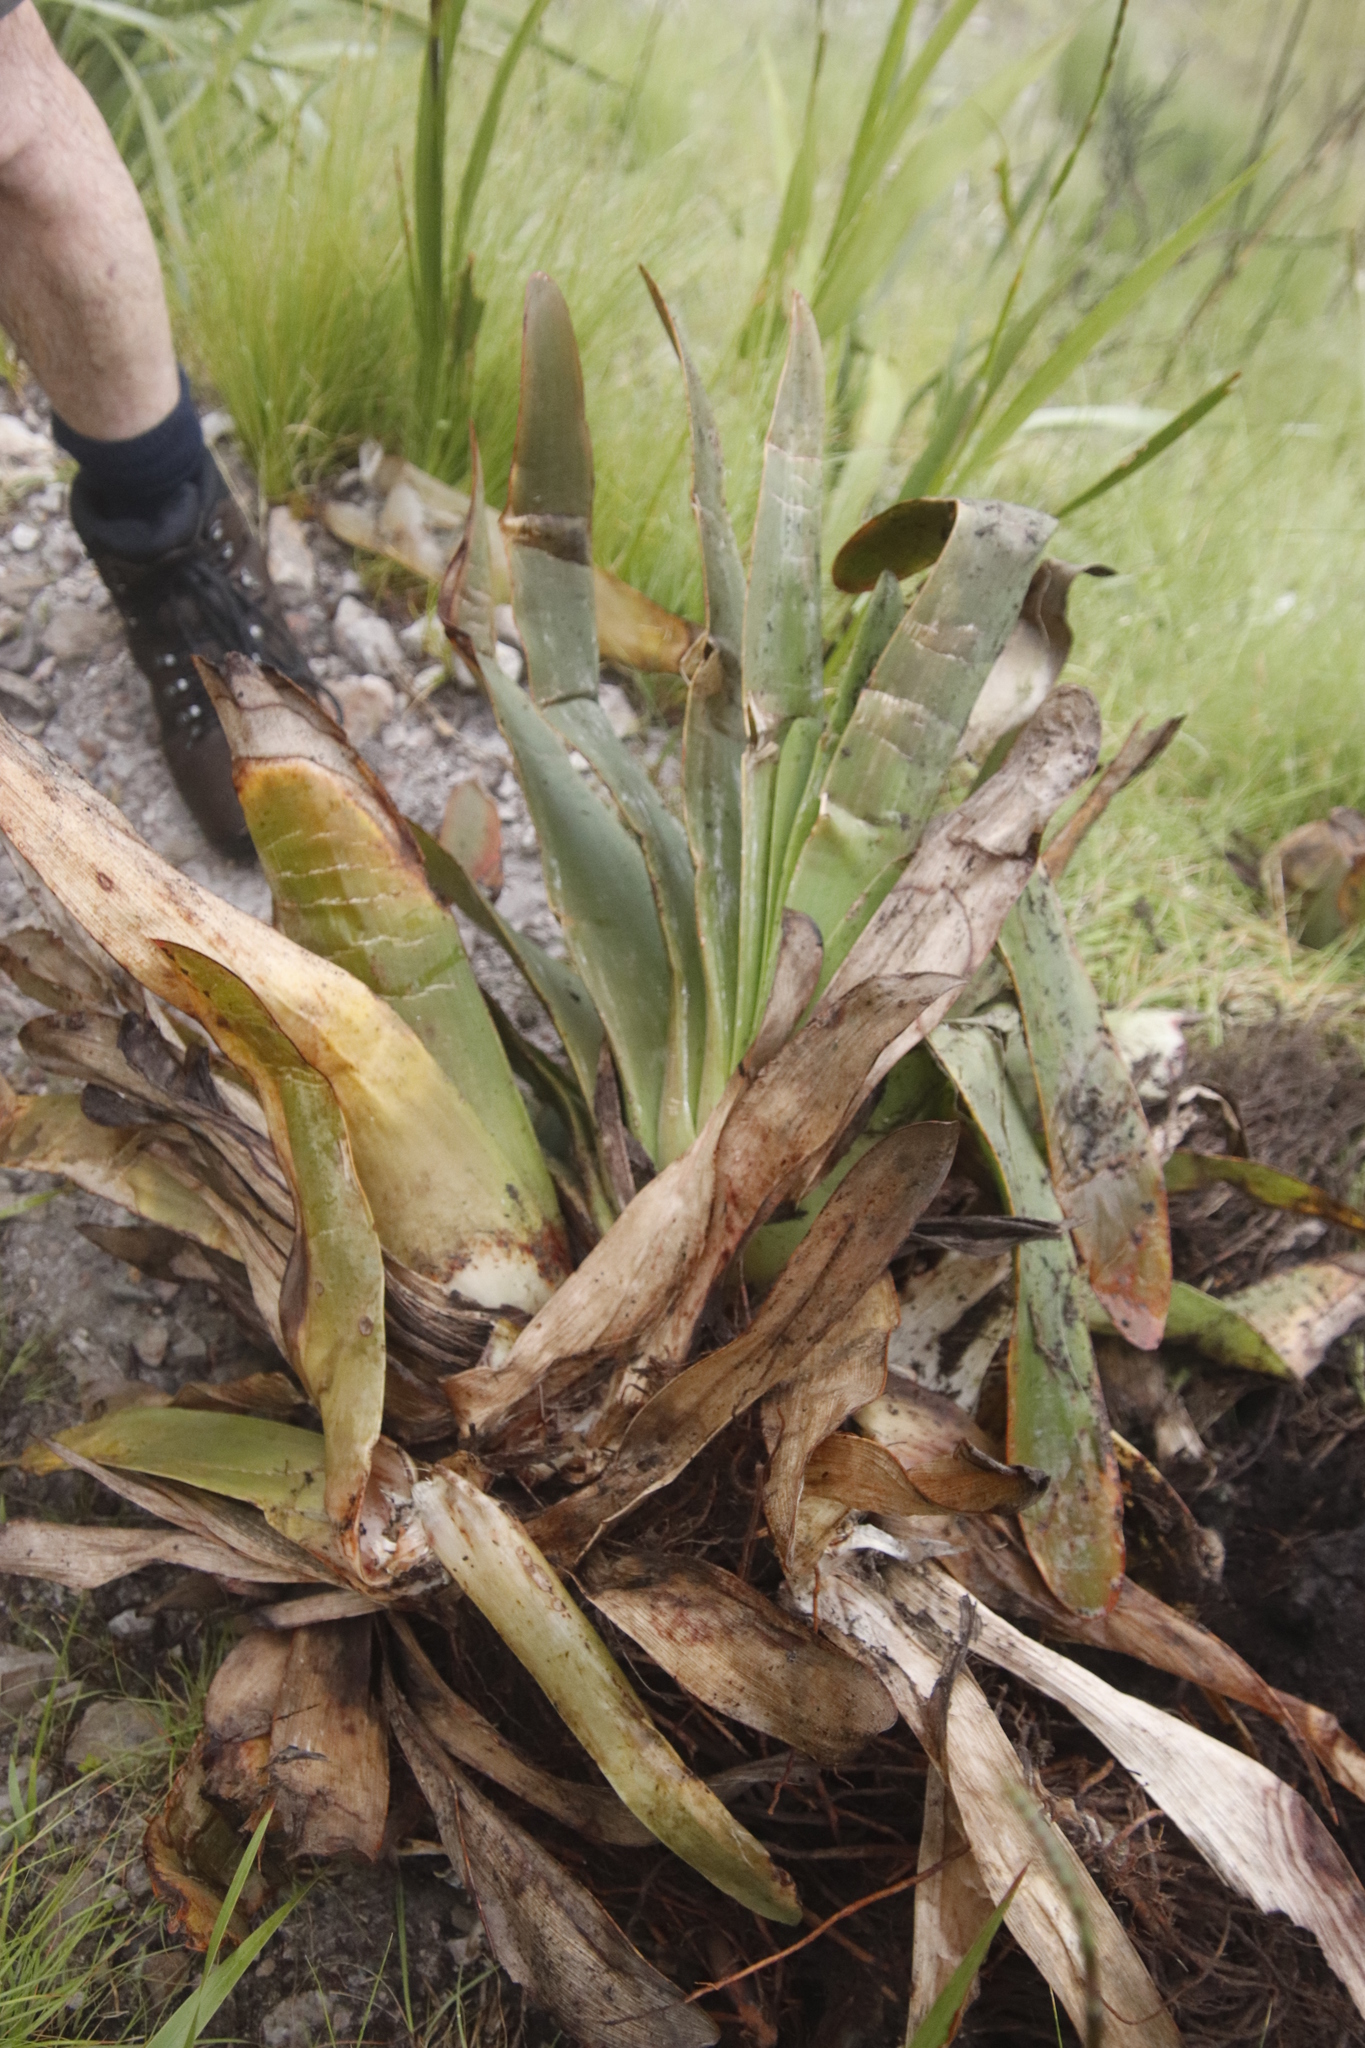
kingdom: Plantae
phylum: Tracheophyta
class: Liliopsida
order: Asparagales
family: Asphodelaceae
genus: Kumara
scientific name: Kumara haemanthifolia
